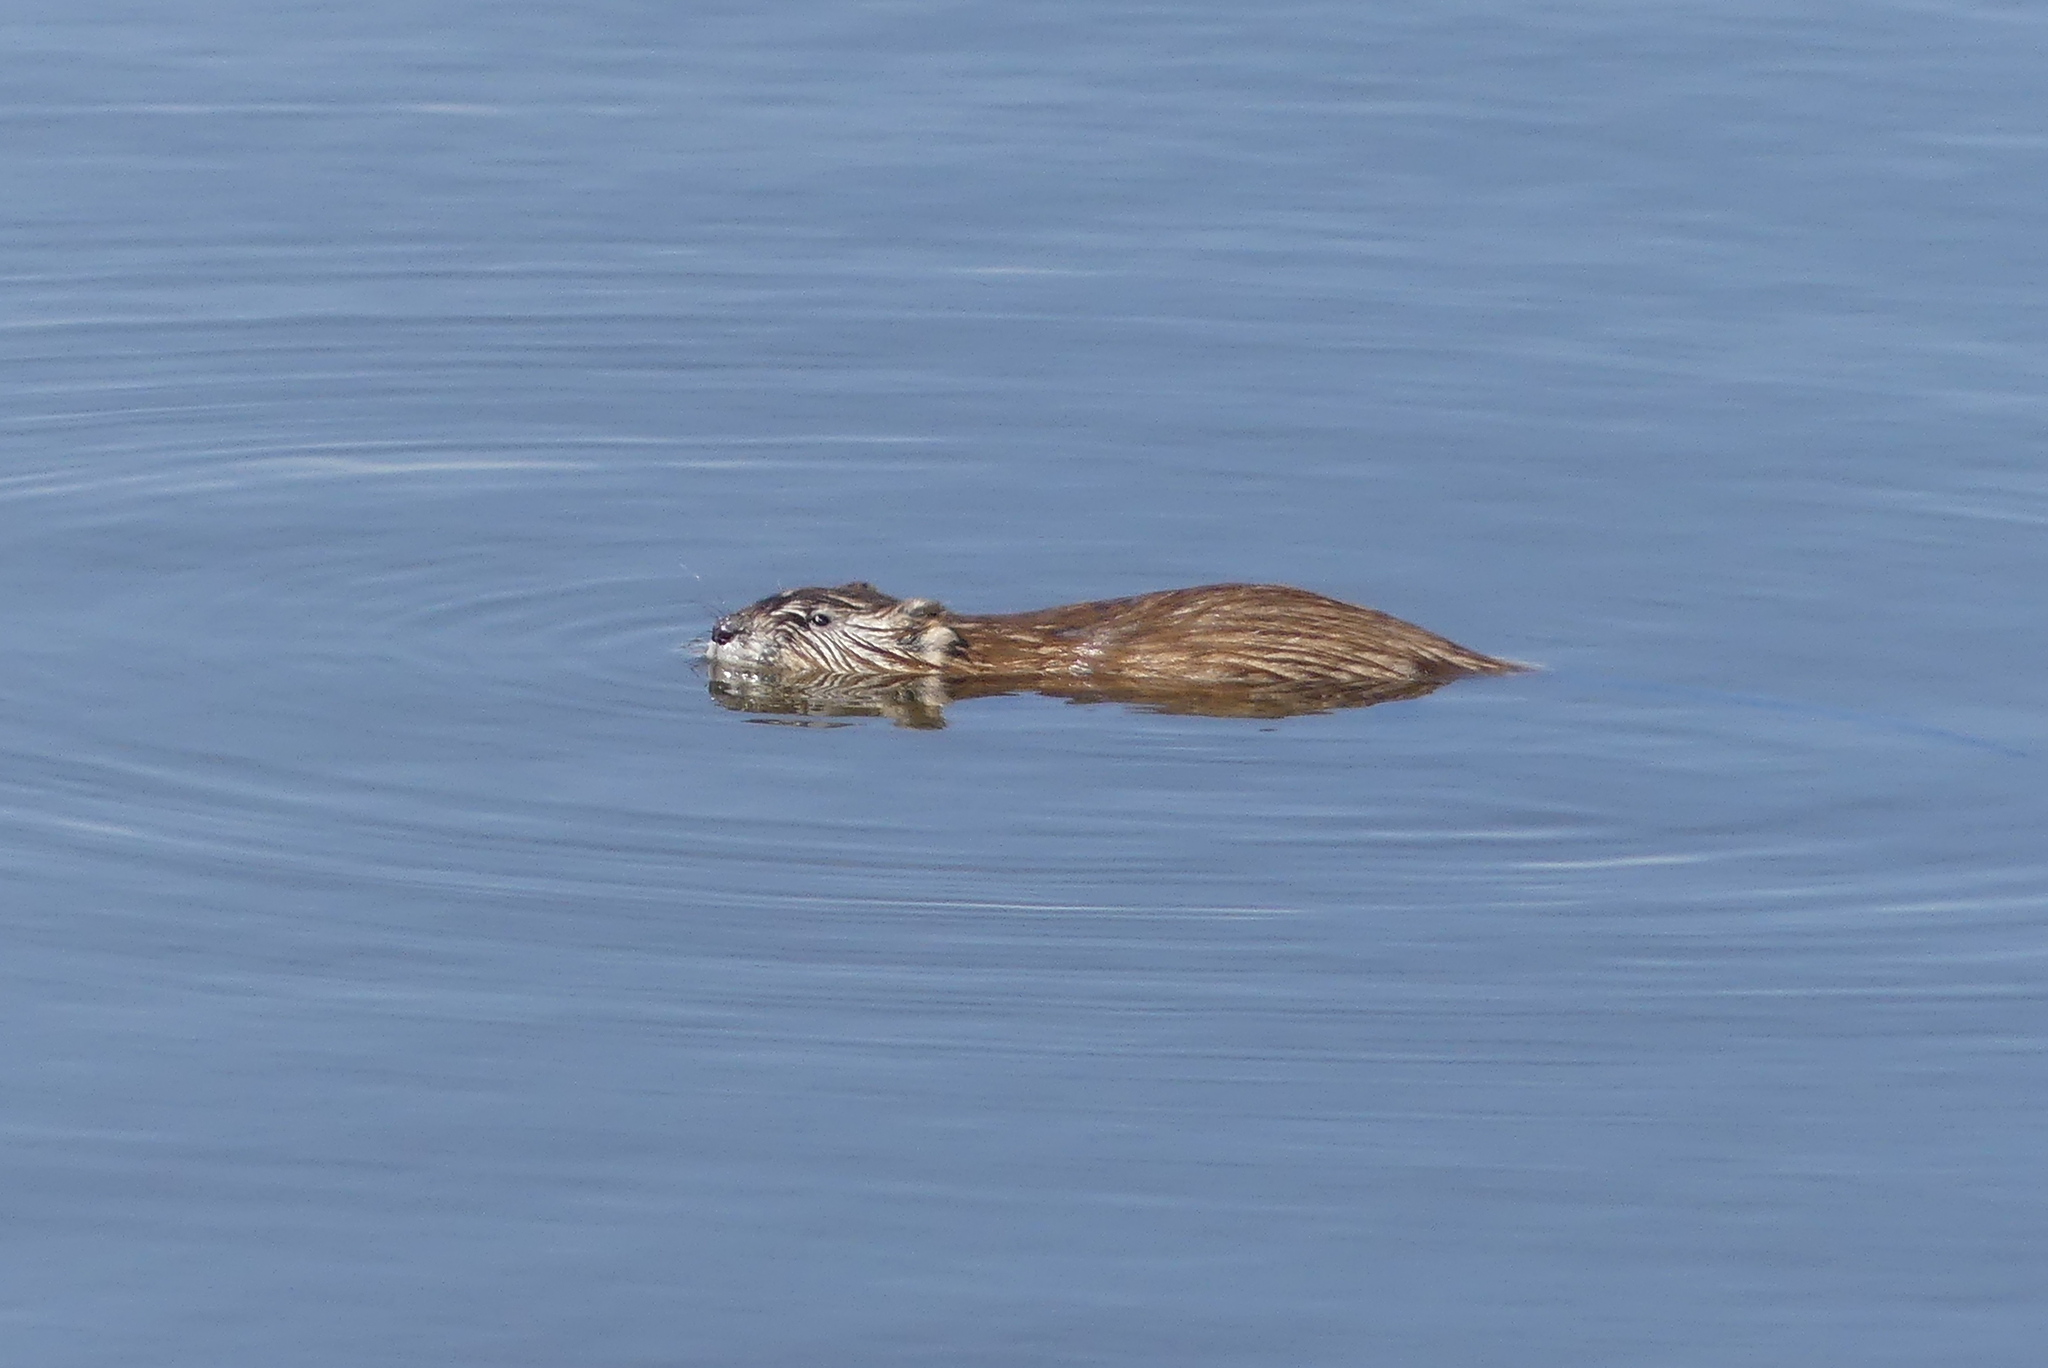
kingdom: Animalia
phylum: Chordata
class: Mammalia
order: Rodentia
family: Cricetidae
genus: Ondatra
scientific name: Ondatra zibethicus
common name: Muskrat
